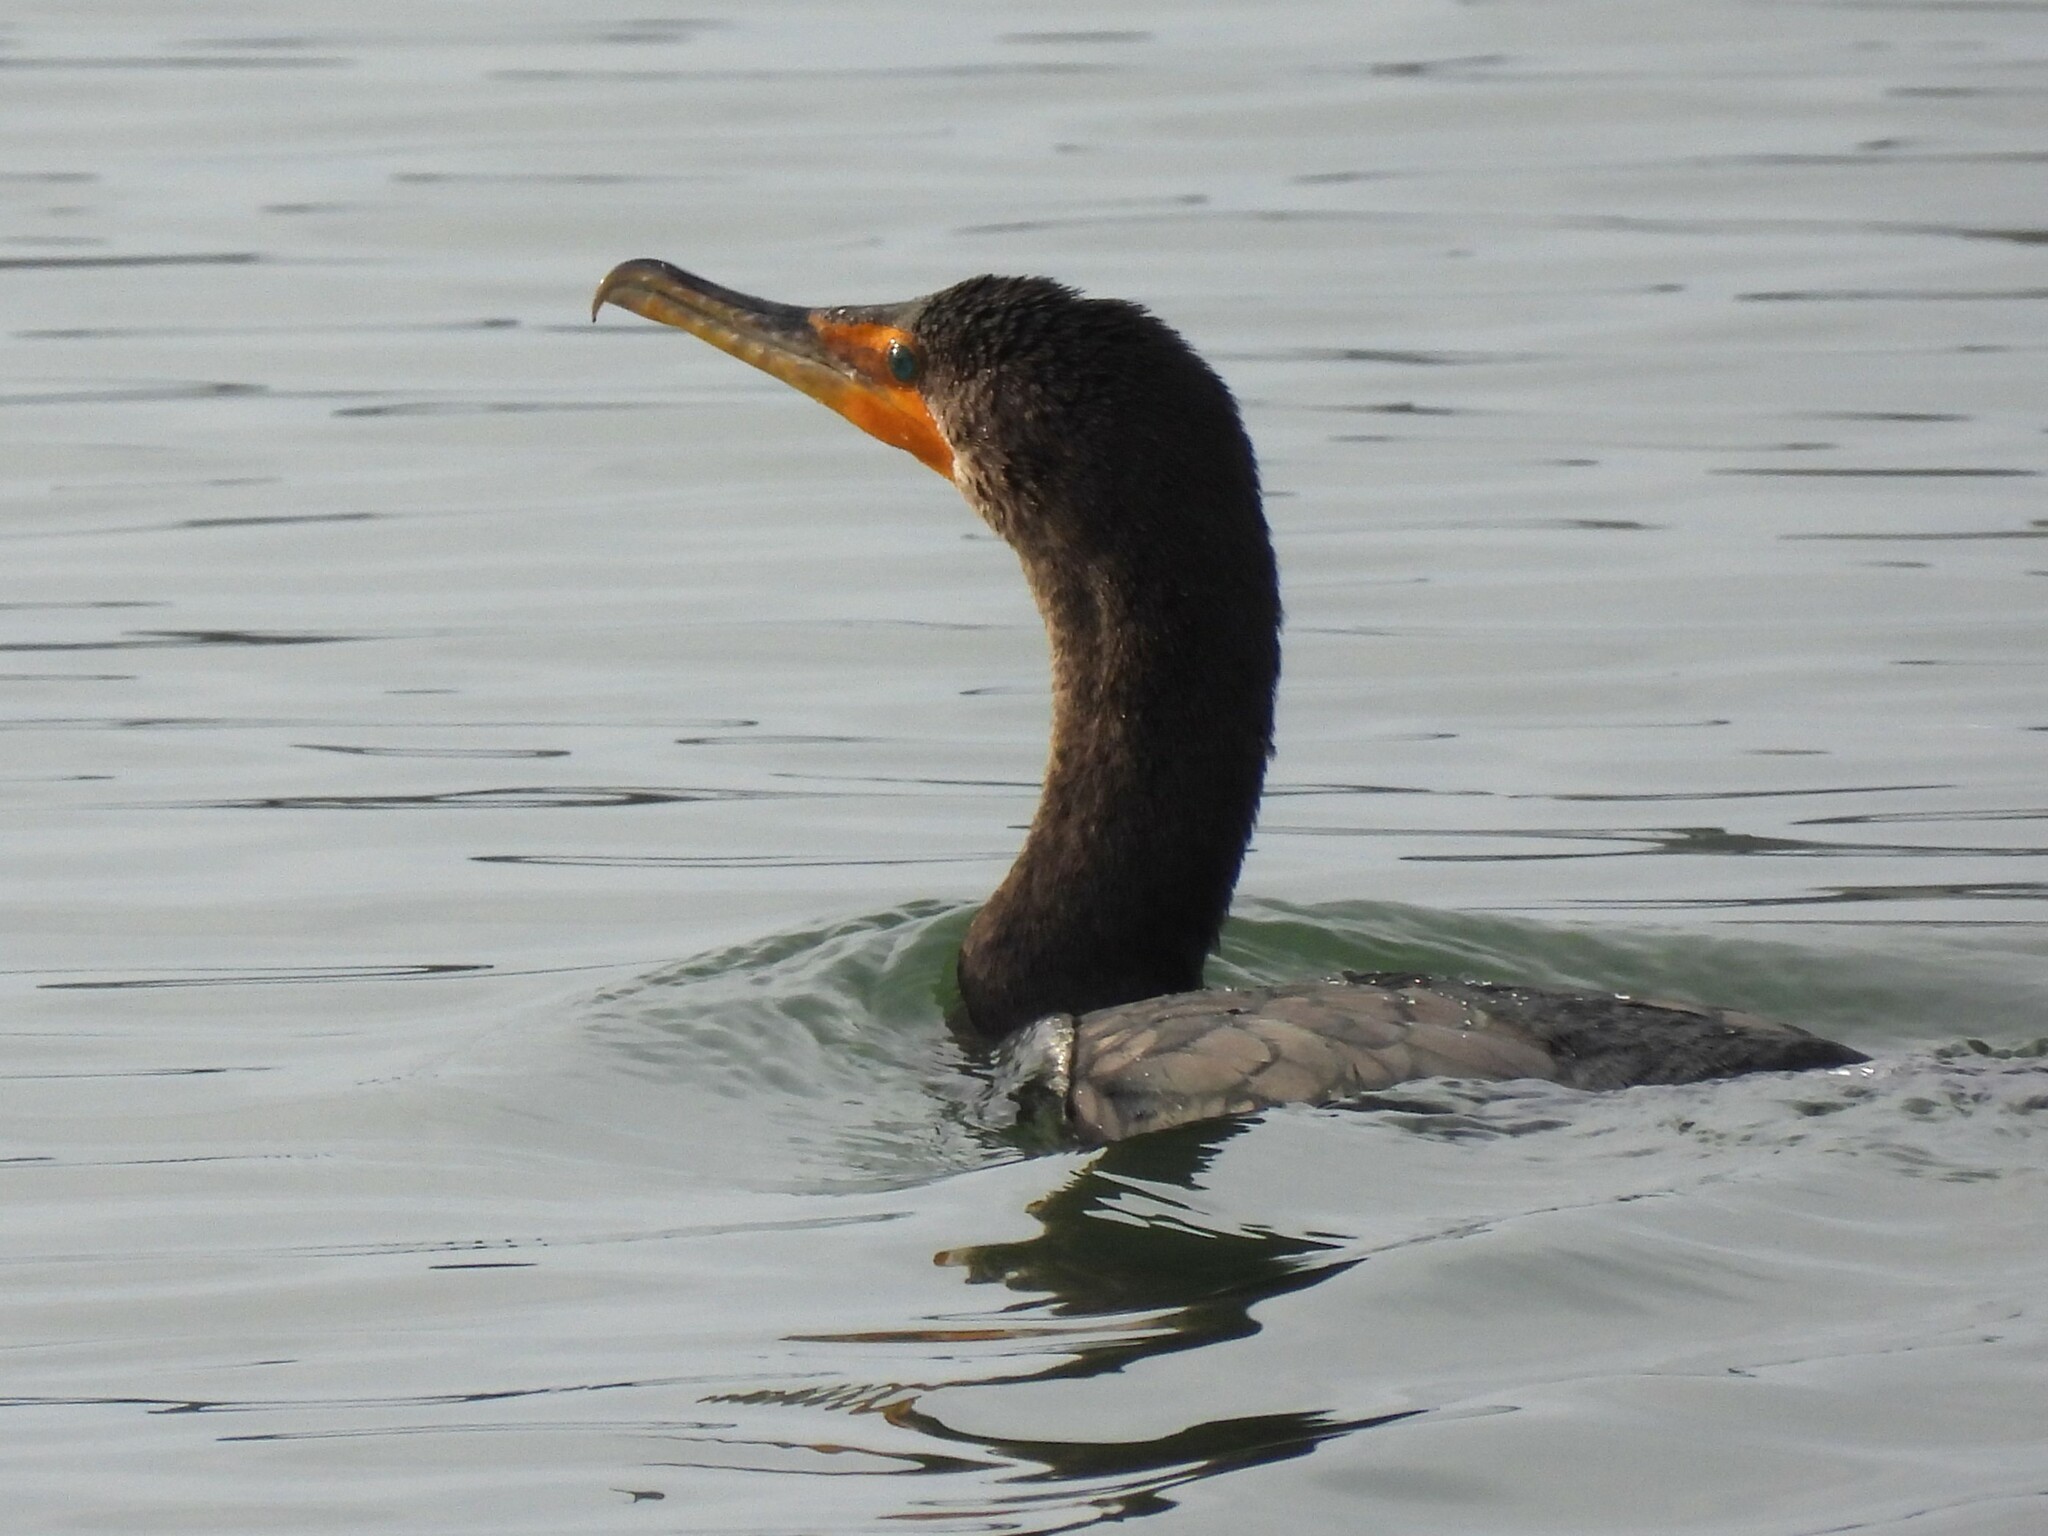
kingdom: Animalia
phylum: Chordata
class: Aves
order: Suliformes
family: Phalacrocoracidae
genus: Phalacrocorax
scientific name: Phalacrocorax auritus
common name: Double-crested cormorant
